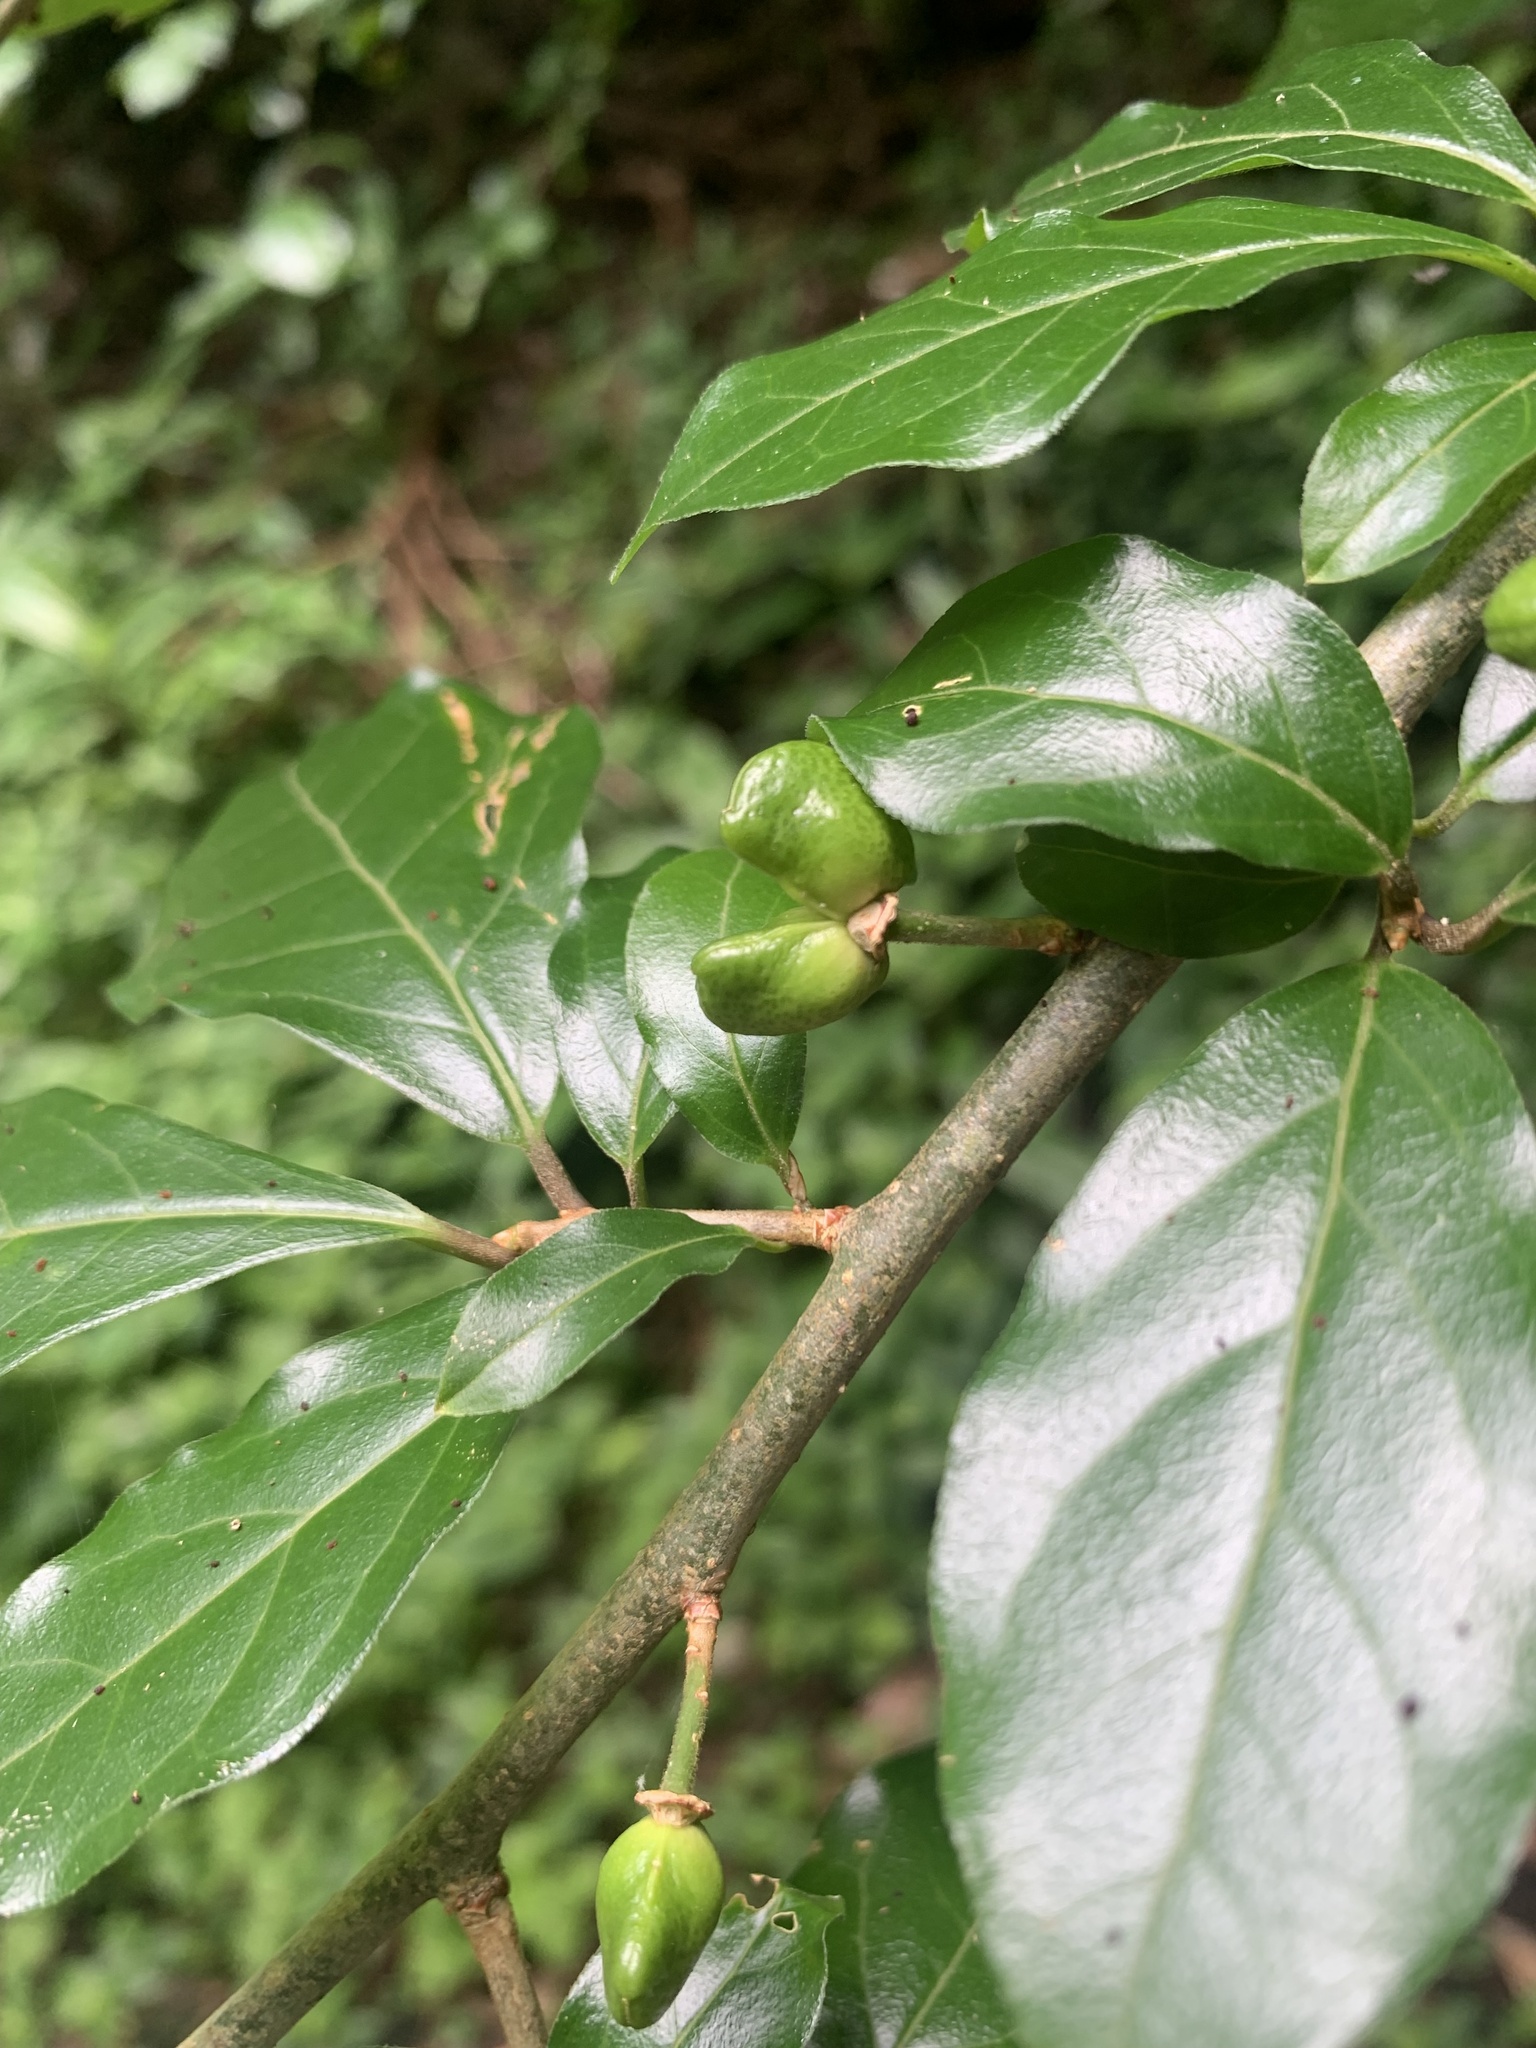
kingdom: Plantae
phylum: Tracheophyta
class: Magnoliopsida
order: Sapindales
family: Rutaceae
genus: Orixa
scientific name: Orixa japonica
